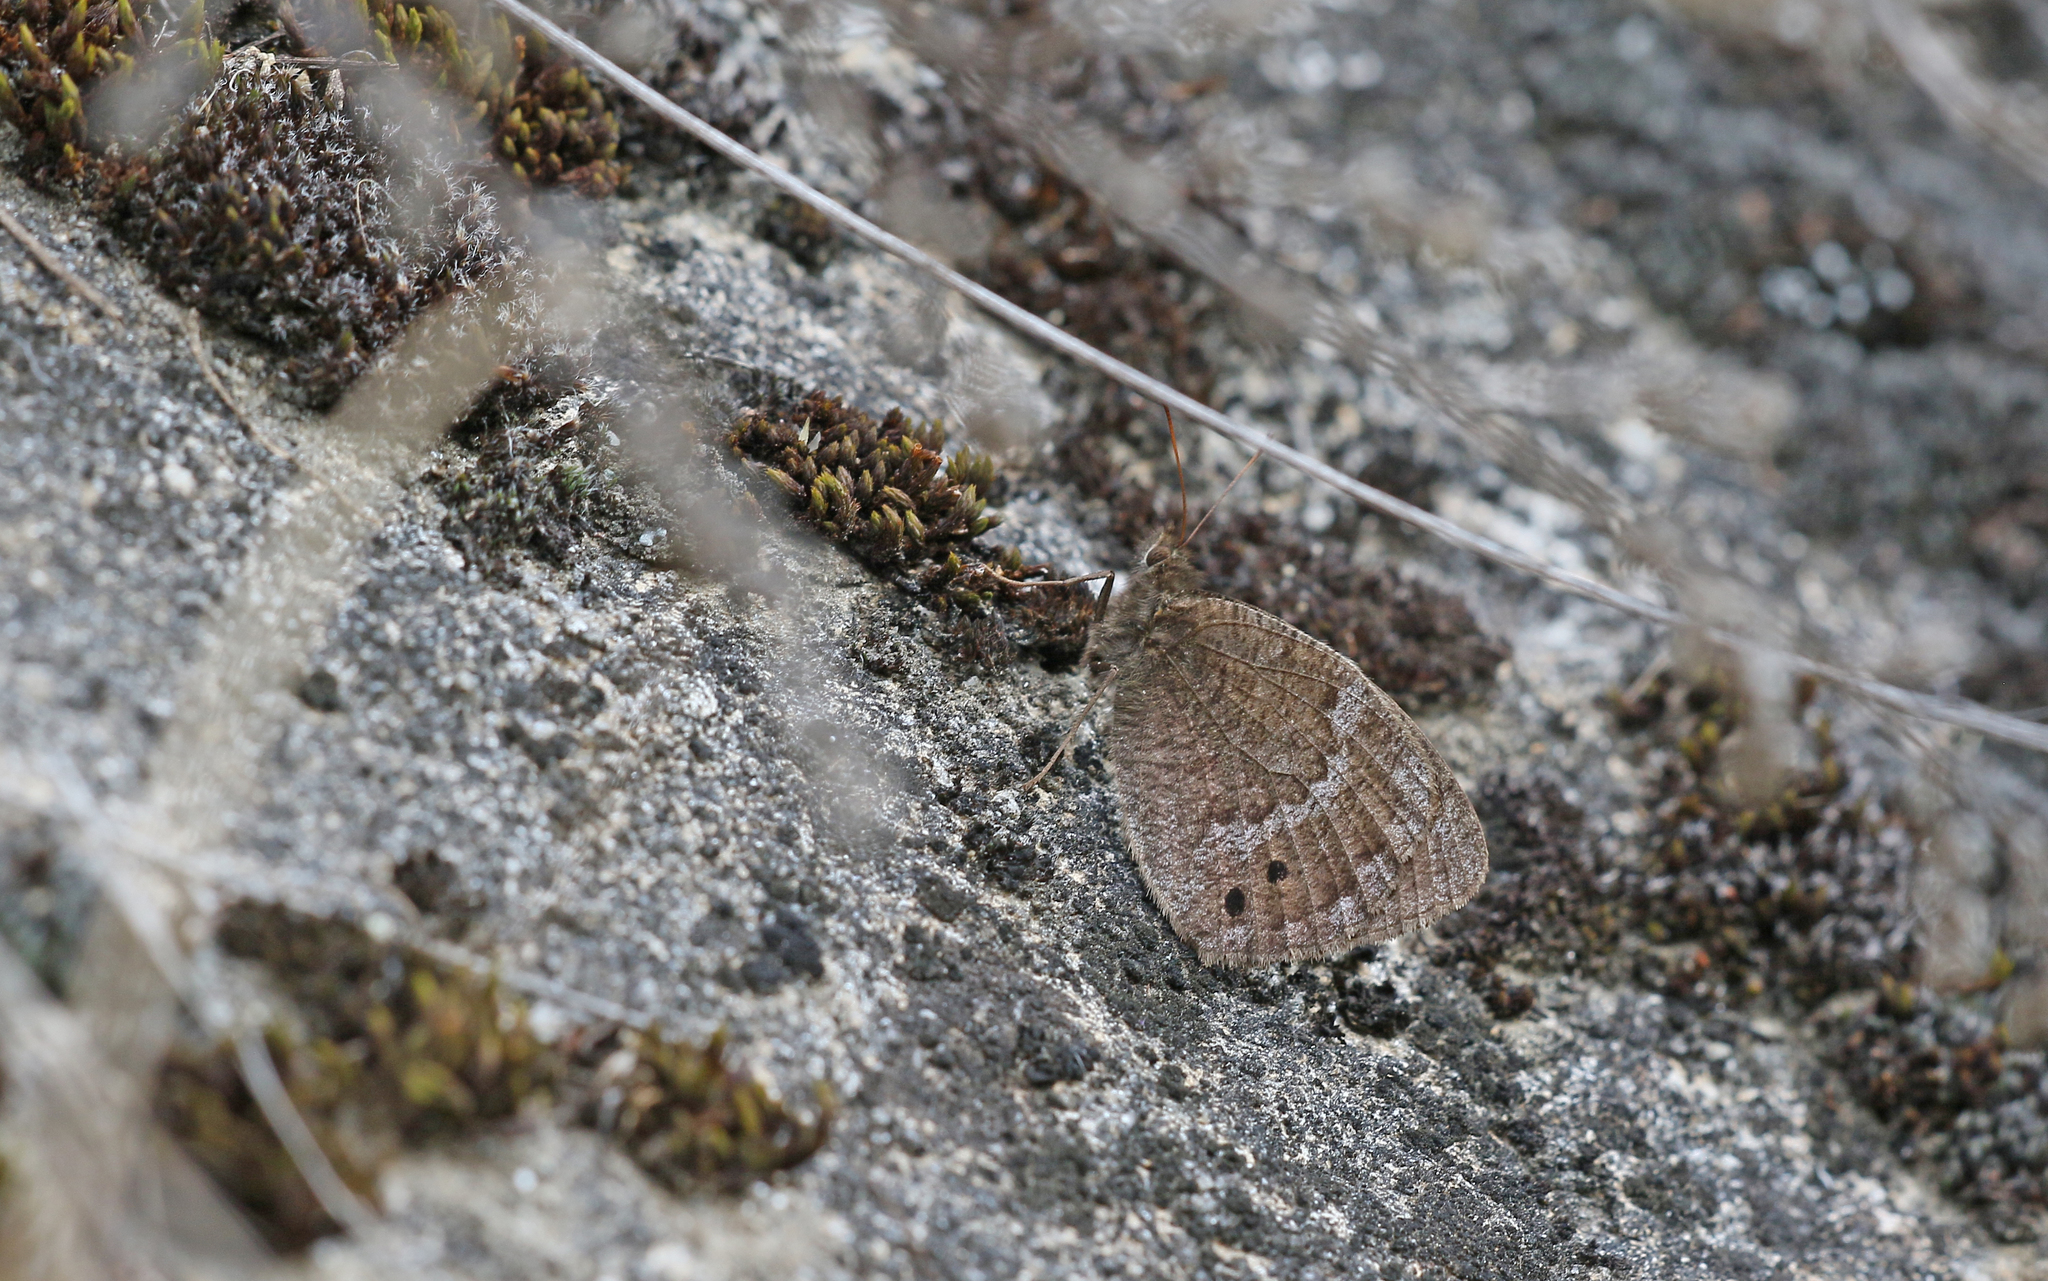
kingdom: Animalia
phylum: Arthropoda
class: Insecta
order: Lepidoptera
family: Nymphalidae
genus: Satyrus
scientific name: Satyrus ferula
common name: Great sooty satyr
